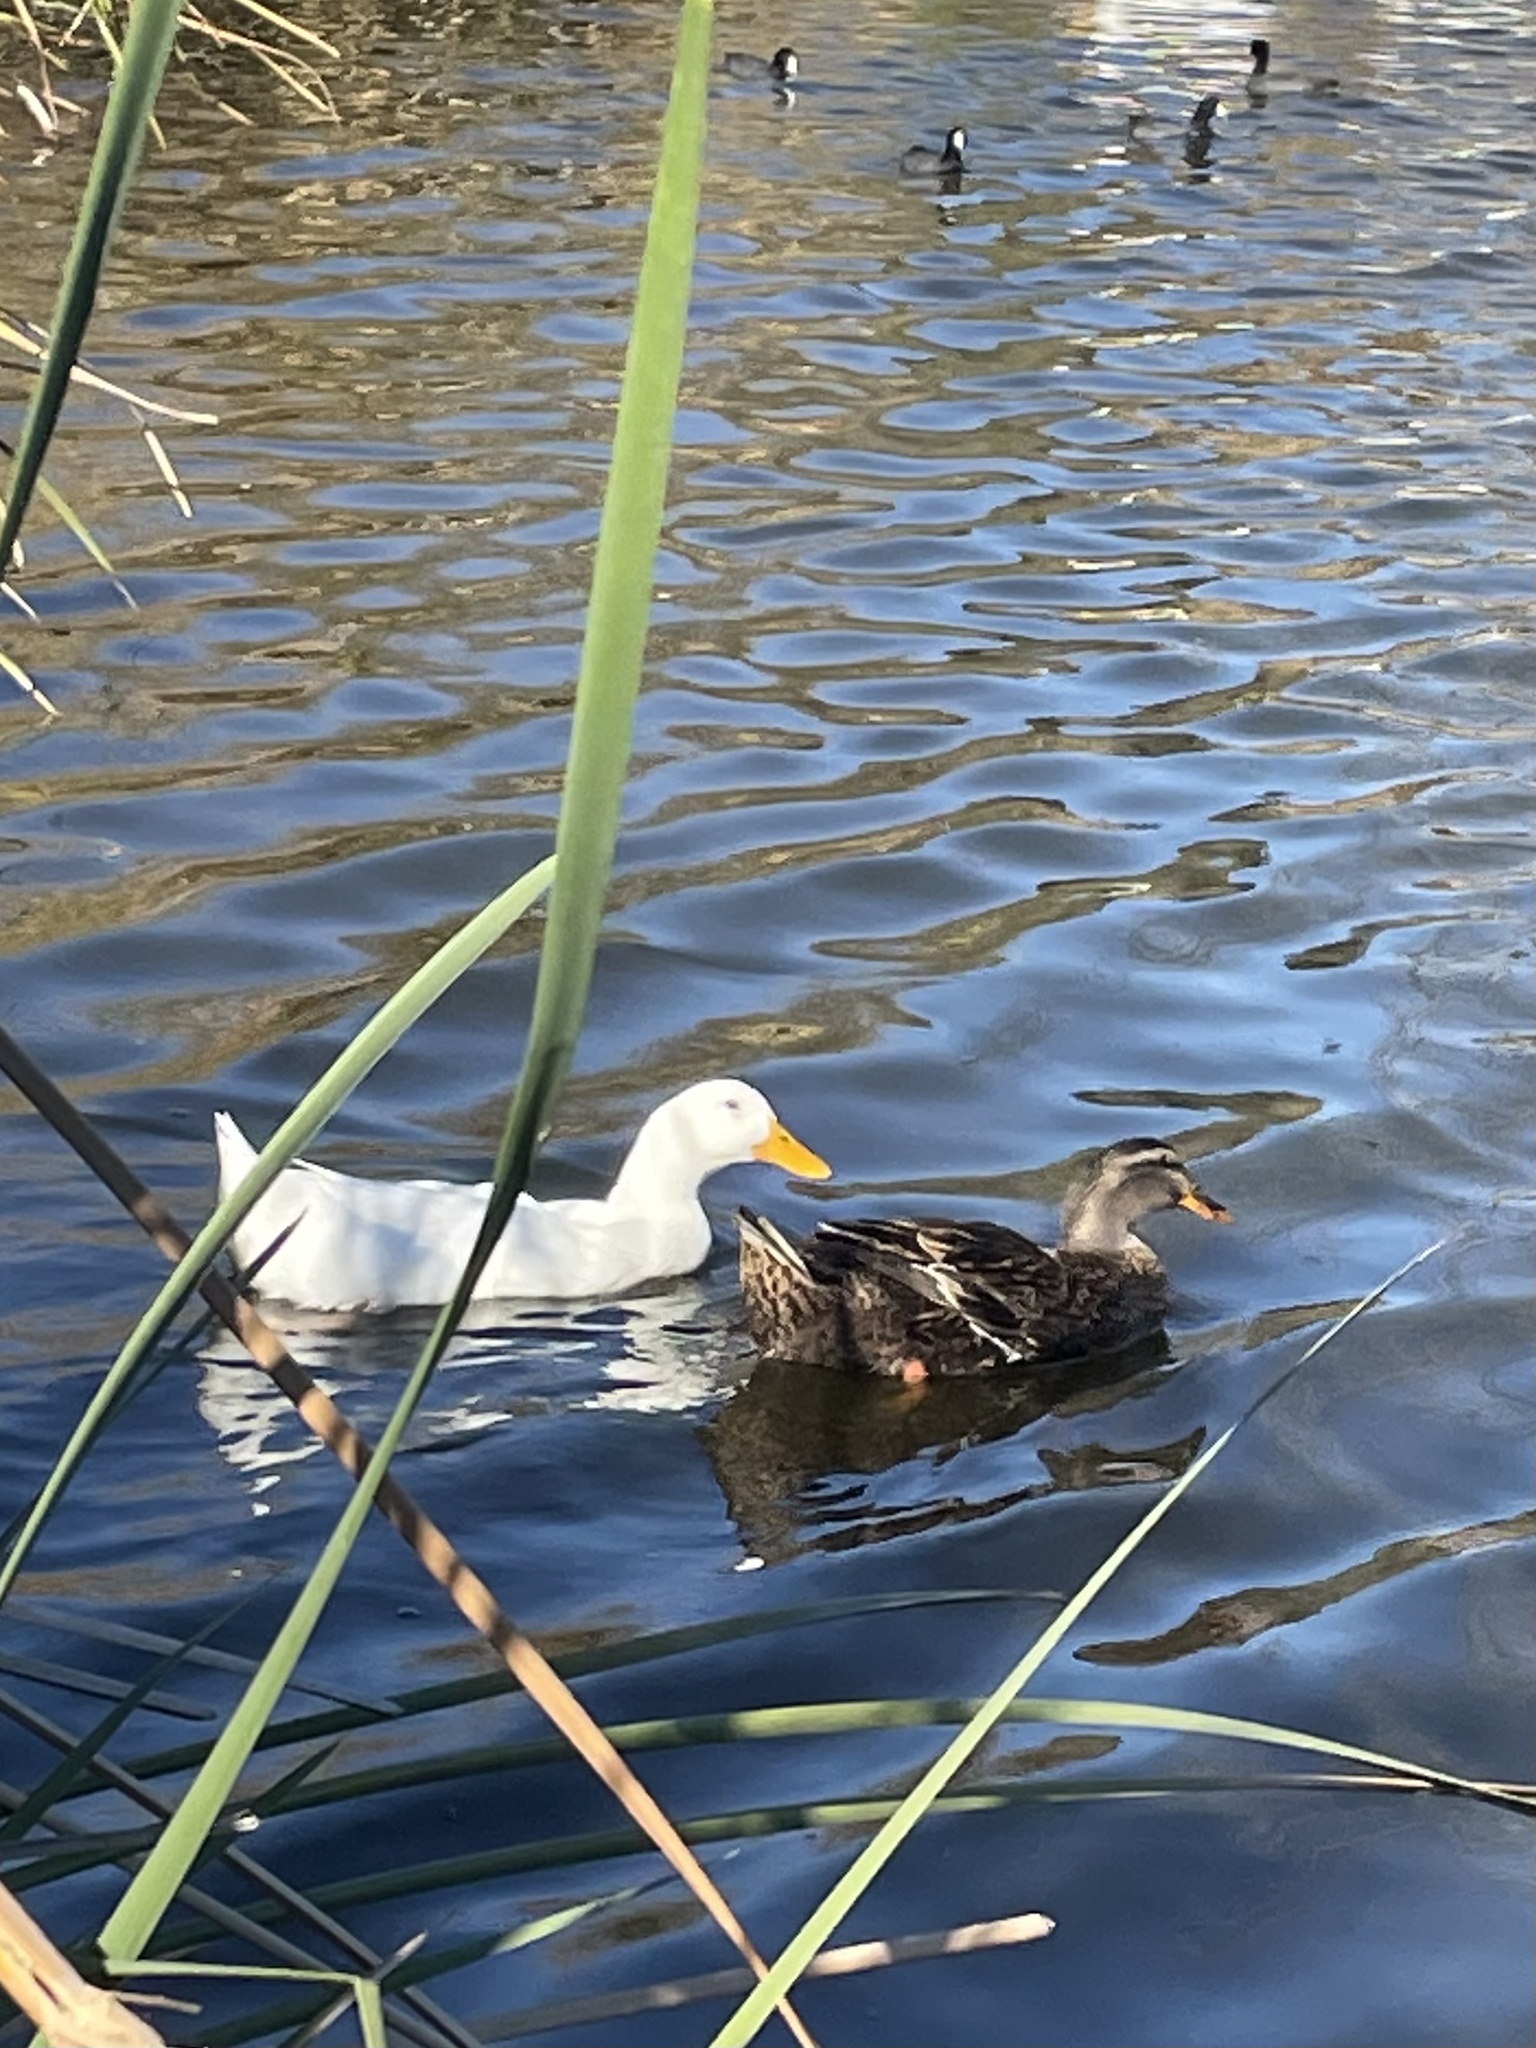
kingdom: Animalia
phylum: Chordata
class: Aves
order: Anseriformes
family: Anatidae
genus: Anas
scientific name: Anas platyrhynchos
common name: Mallard
